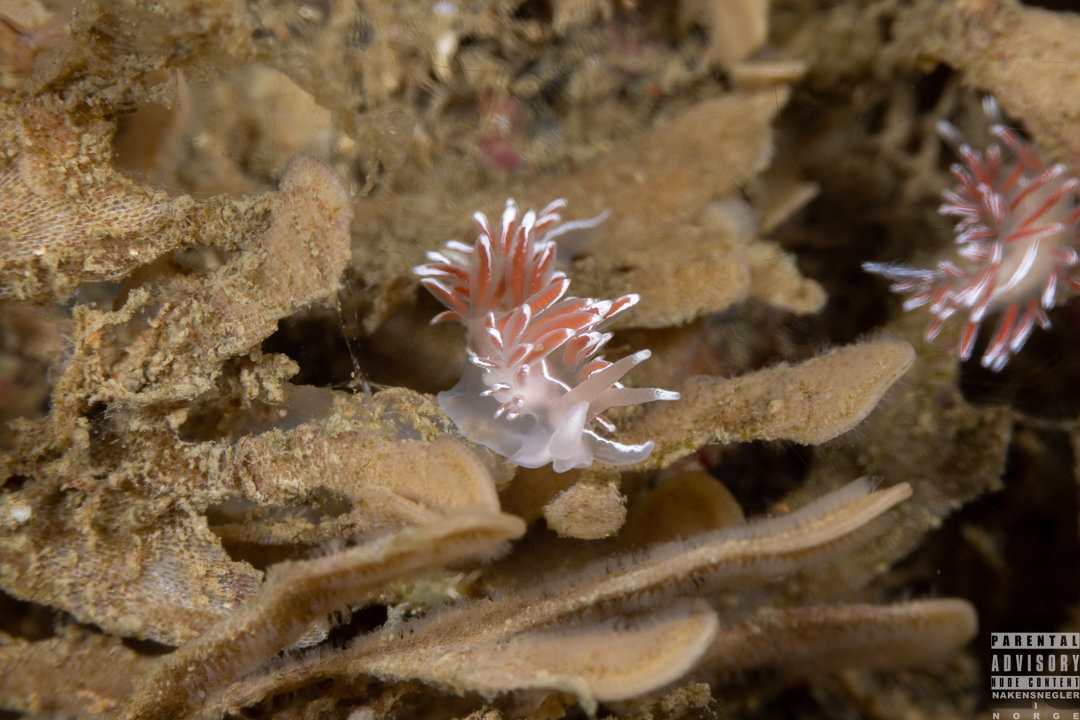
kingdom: Animalia
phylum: Mollusca
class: Gastropoda
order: Nudibranchia
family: Coryphellidae
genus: Coryphella
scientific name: Coryphella lineata
